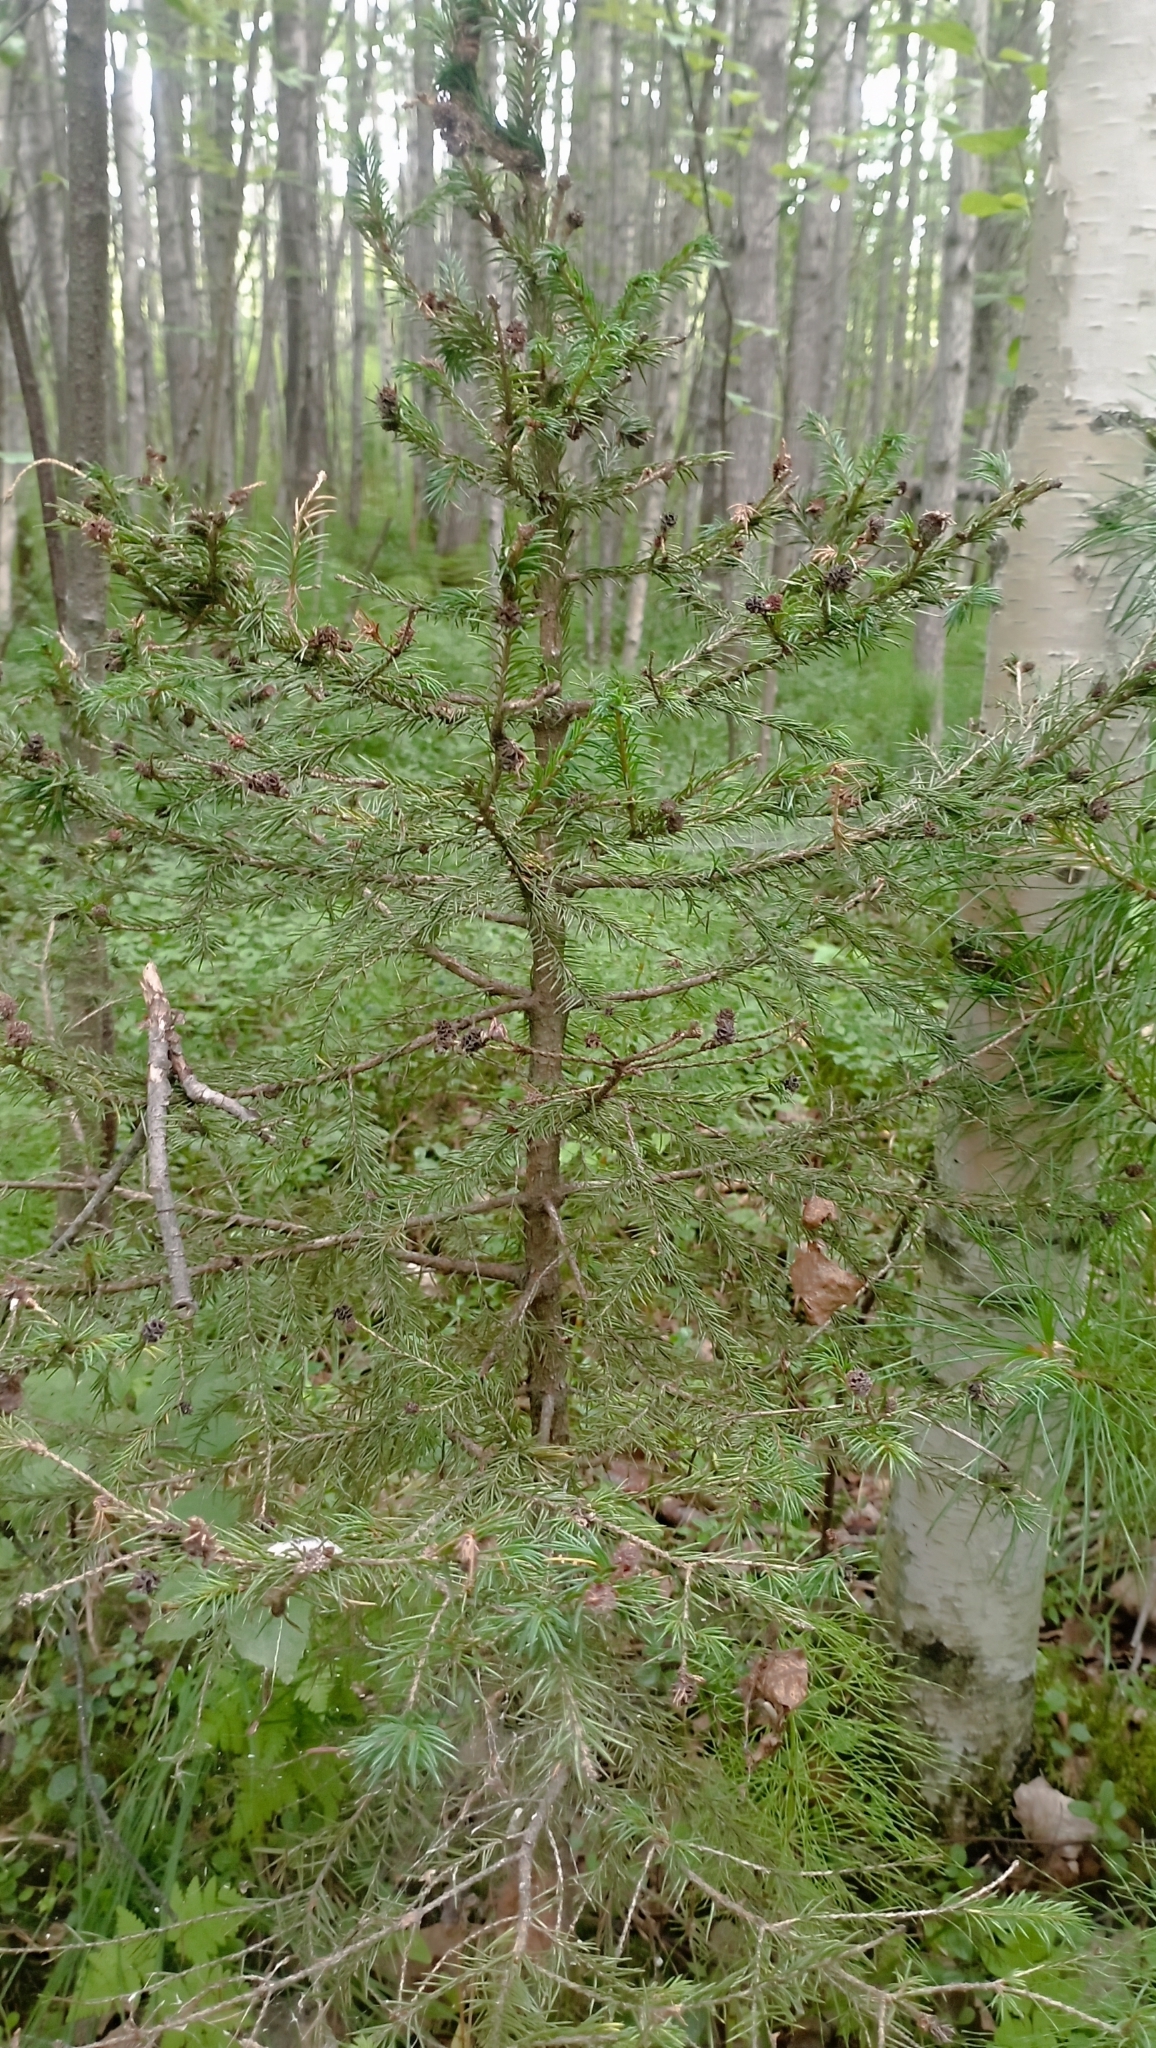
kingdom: Plantae
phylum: Tracheophyta
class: Pinopsida
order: Pinales
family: Pinaceae
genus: Picea
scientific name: Picea obovata
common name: Siberian spruce
